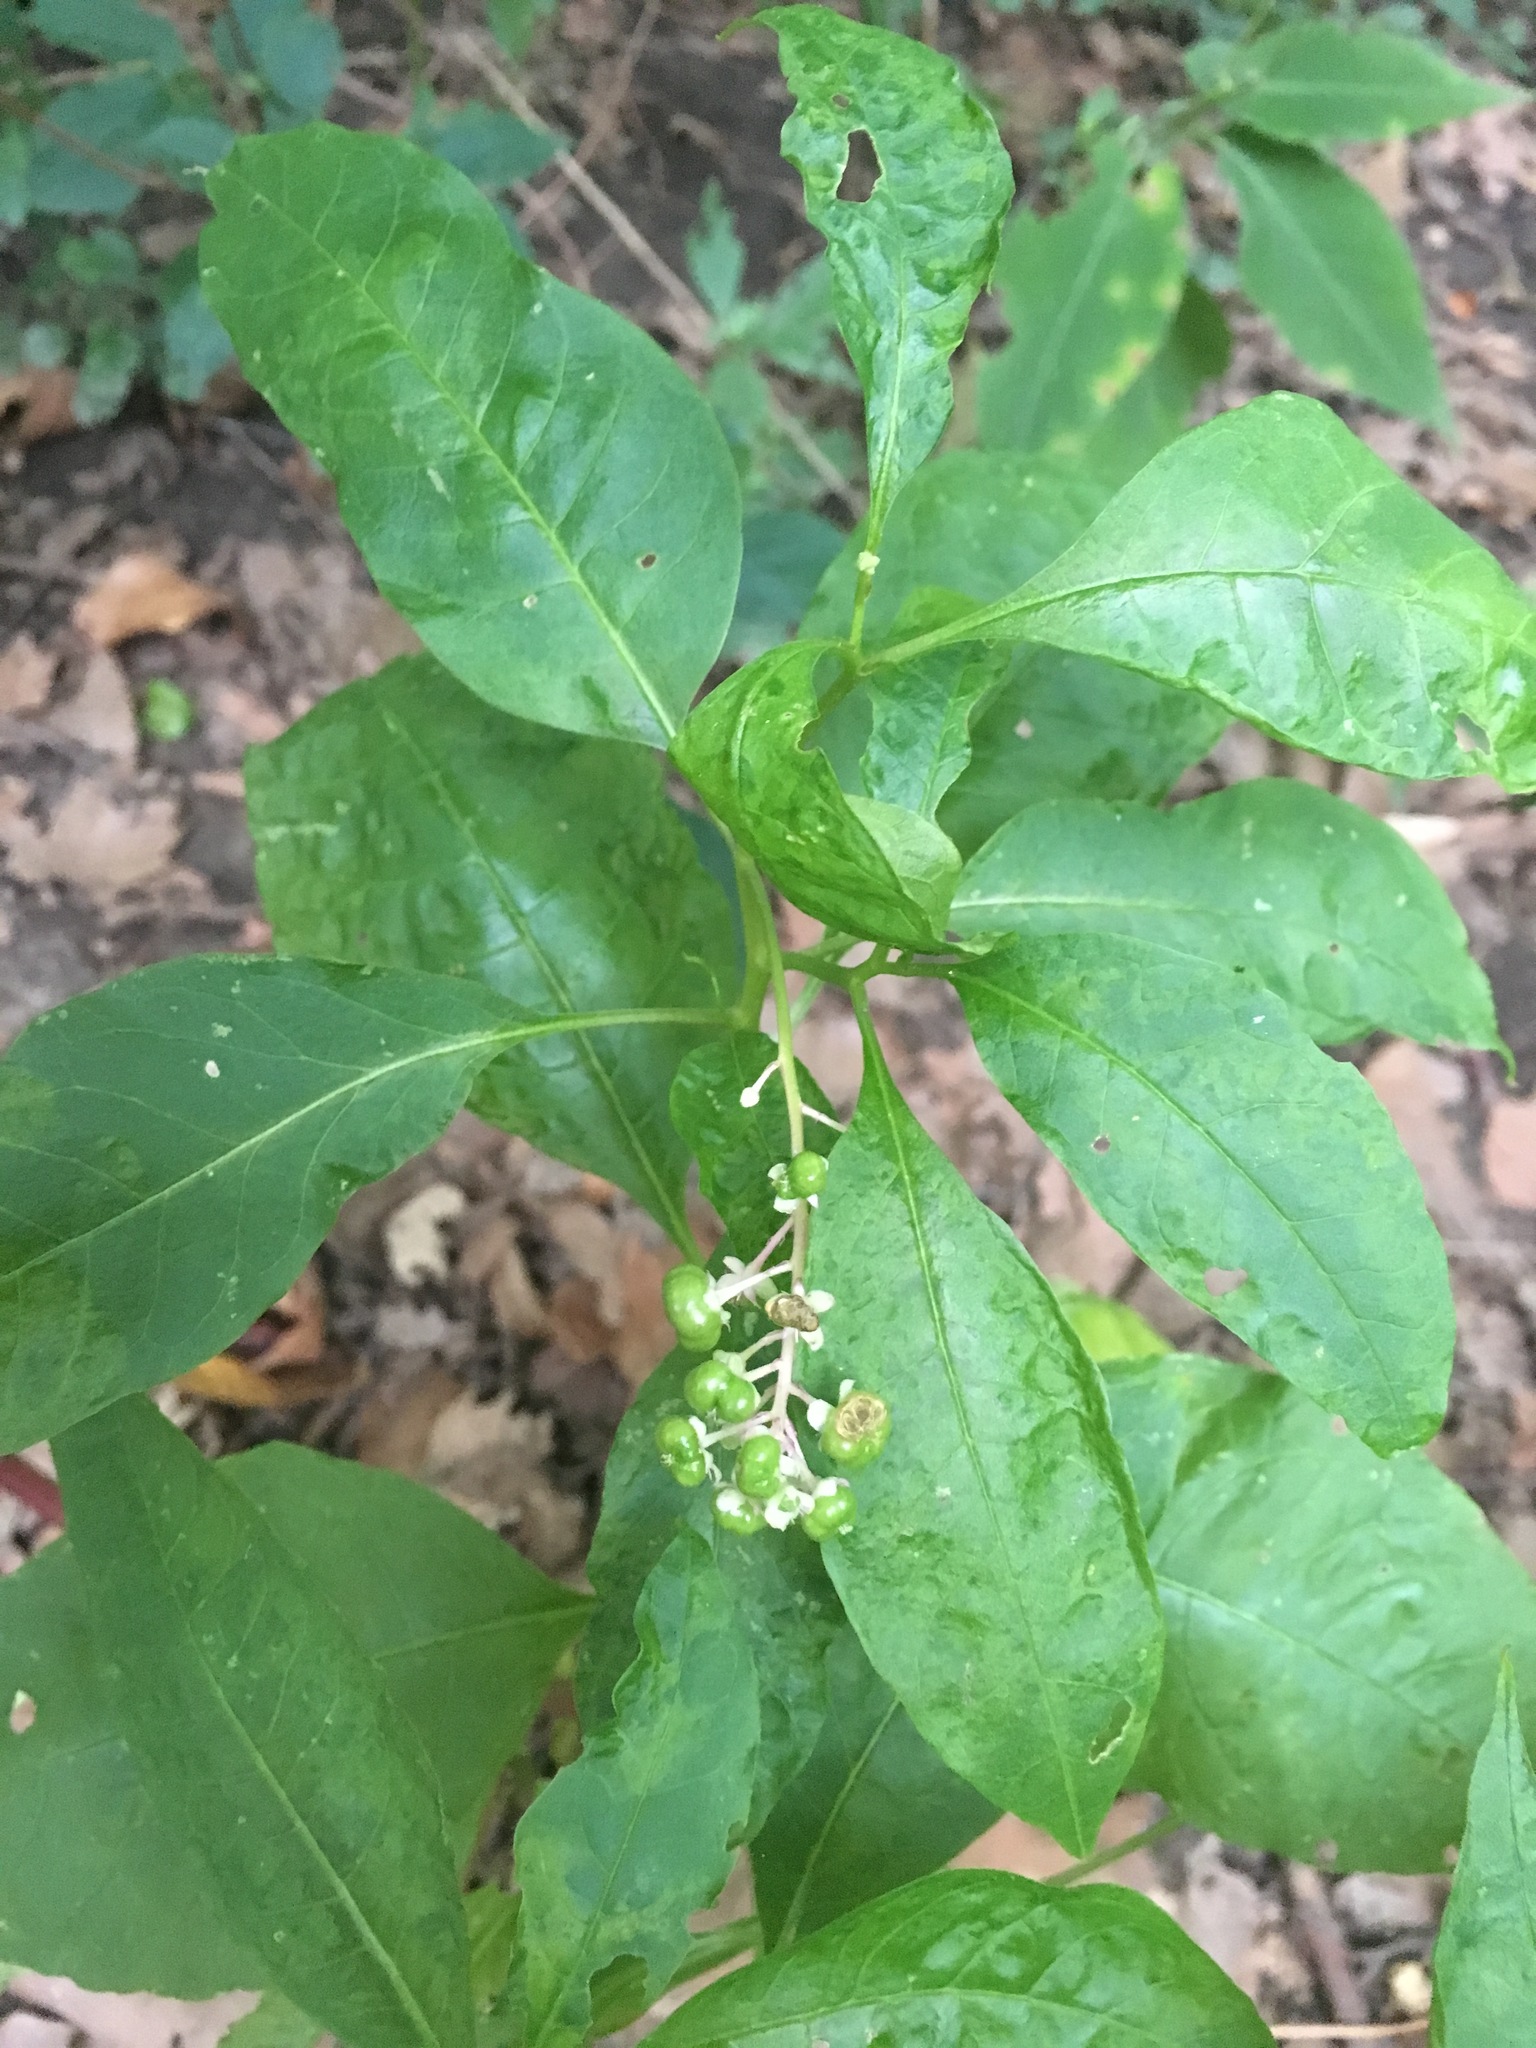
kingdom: Plantae
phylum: Tracheophyta
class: Magnoliopsida
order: Caryophyllales
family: Phytolaccaceae
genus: Phytolacca
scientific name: Phytolacca americana
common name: American pokeweed
